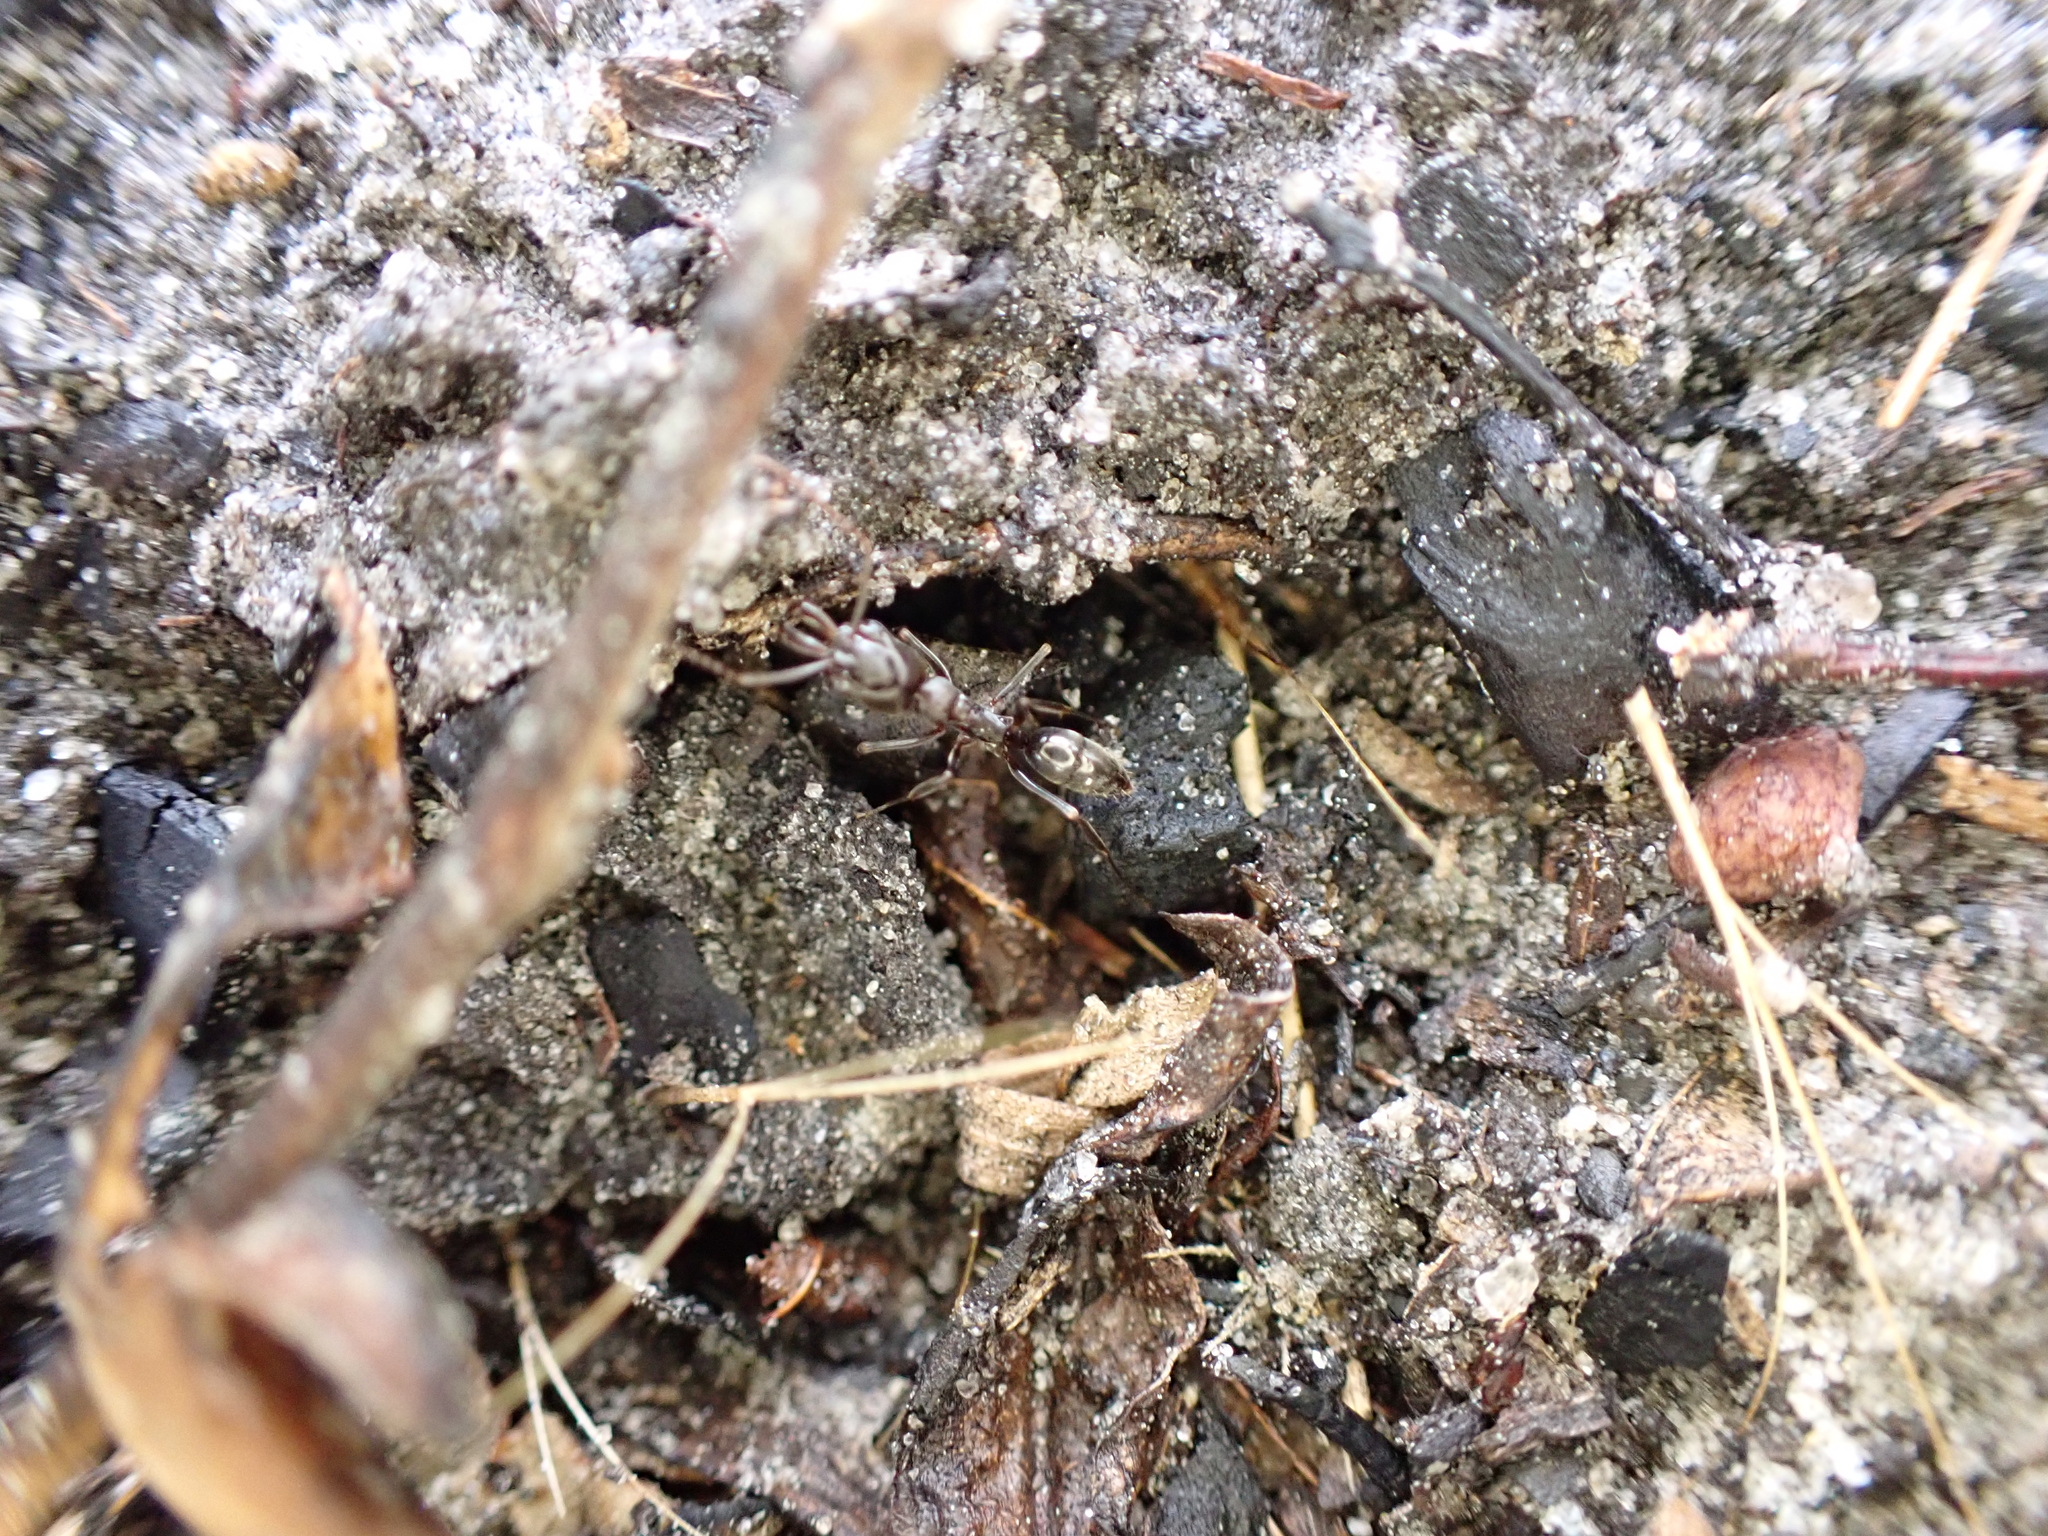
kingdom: Animalia
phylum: Arthropoda
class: Insecta
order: Hymenoptera
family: Formicidae
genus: Odontomachus
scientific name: Odontomachus brunneus
